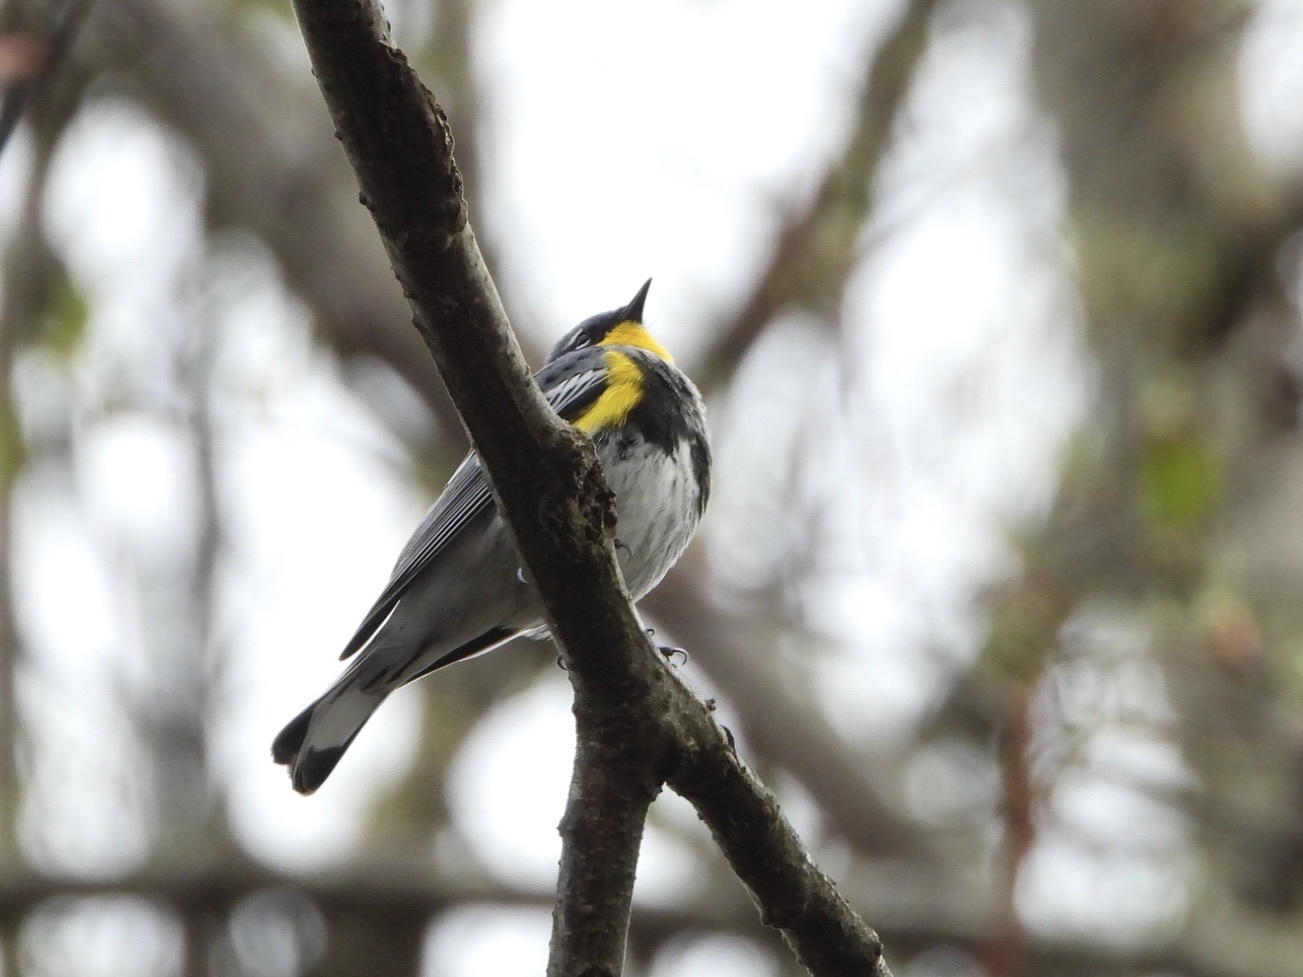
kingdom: Animalia
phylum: Chordata
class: Aves
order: Passeriformes
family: Parulidae
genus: Setophaga
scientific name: Setophaga auduboni
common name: Audubon's warbler
